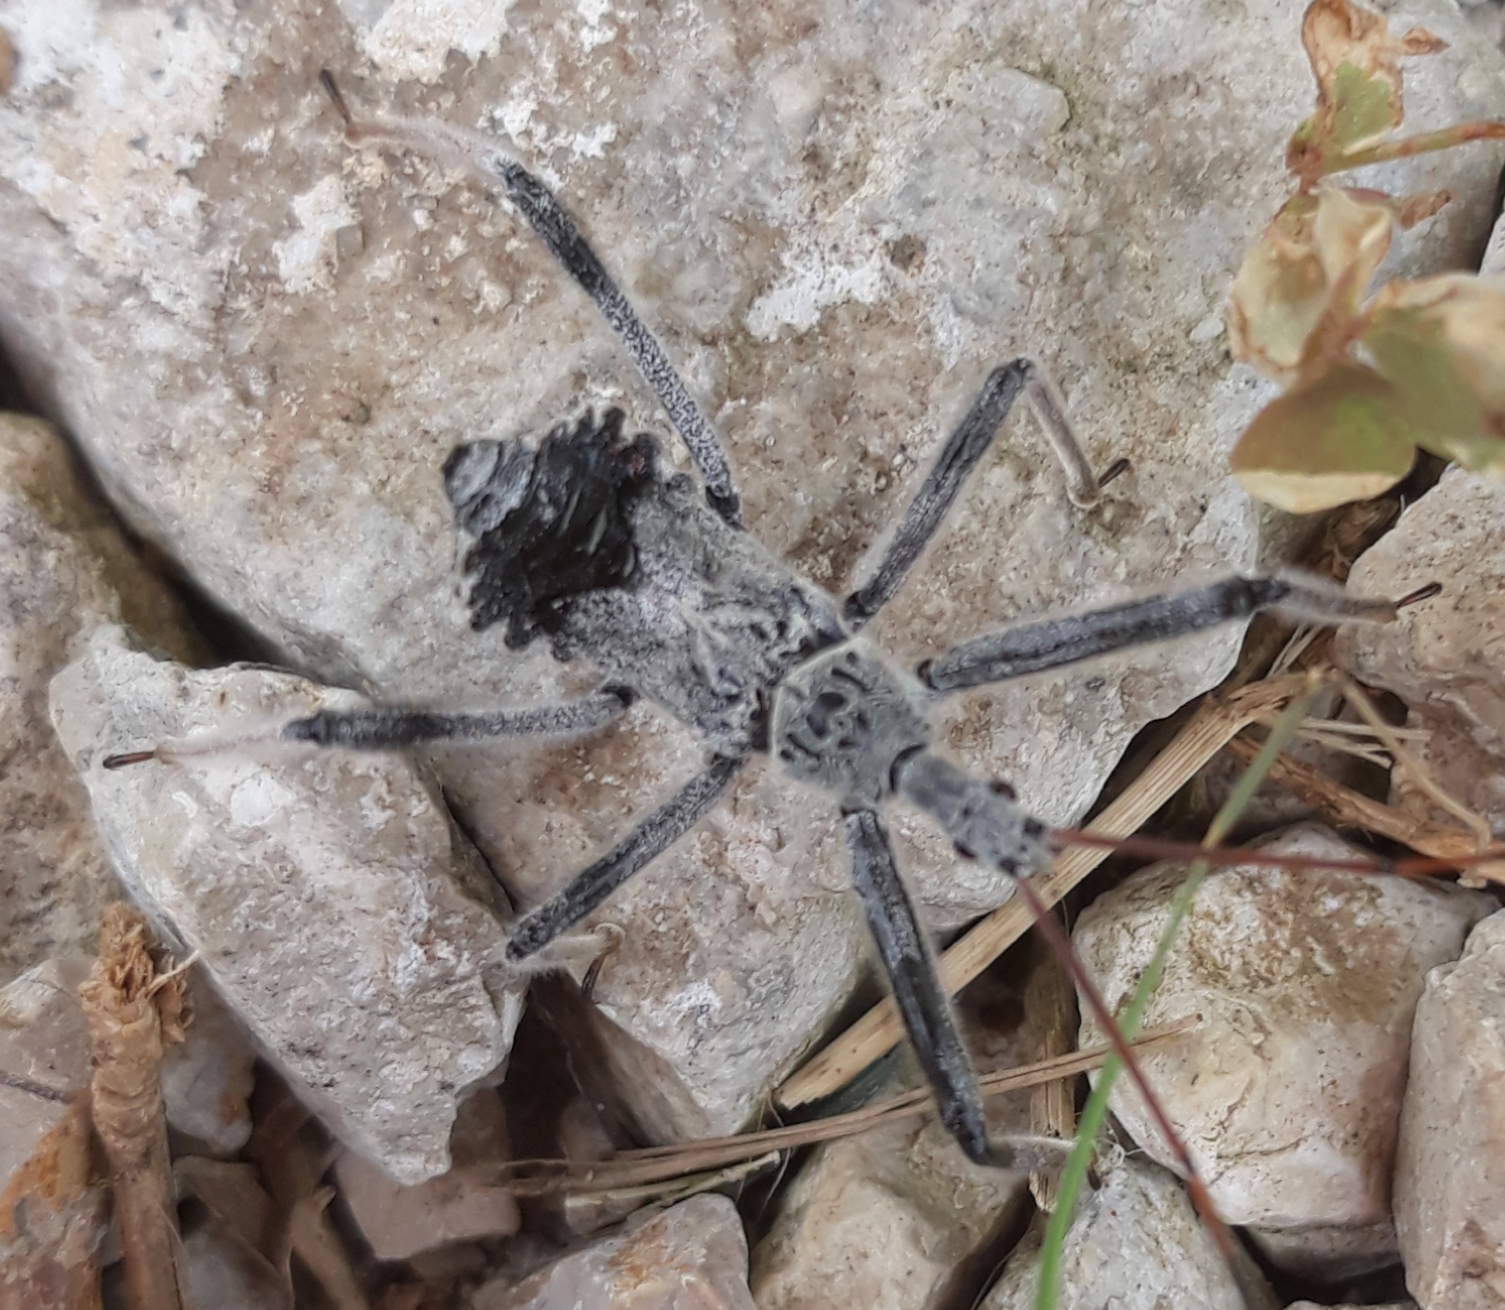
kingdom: Animalia
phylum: Arthropoda
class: Insecta
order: Hemiptera
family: Reduviidae
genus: Arilus
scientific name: Arilus cristatus
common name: North american wheel bug
